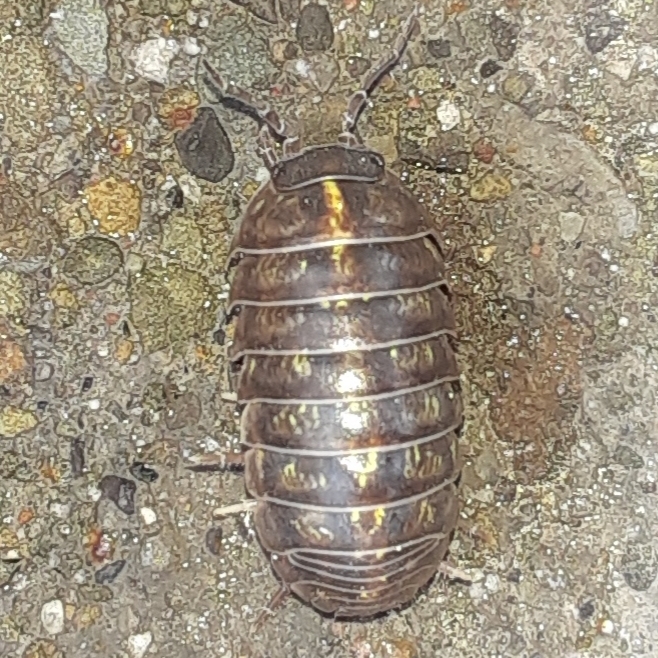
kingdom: Animalia
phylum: Arthropoda
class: Malacostraca
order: Isopoda
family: Armadillidiidae
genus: Armadillidium
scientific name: Armadillidium vulgare
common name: Common pill woodlouse
